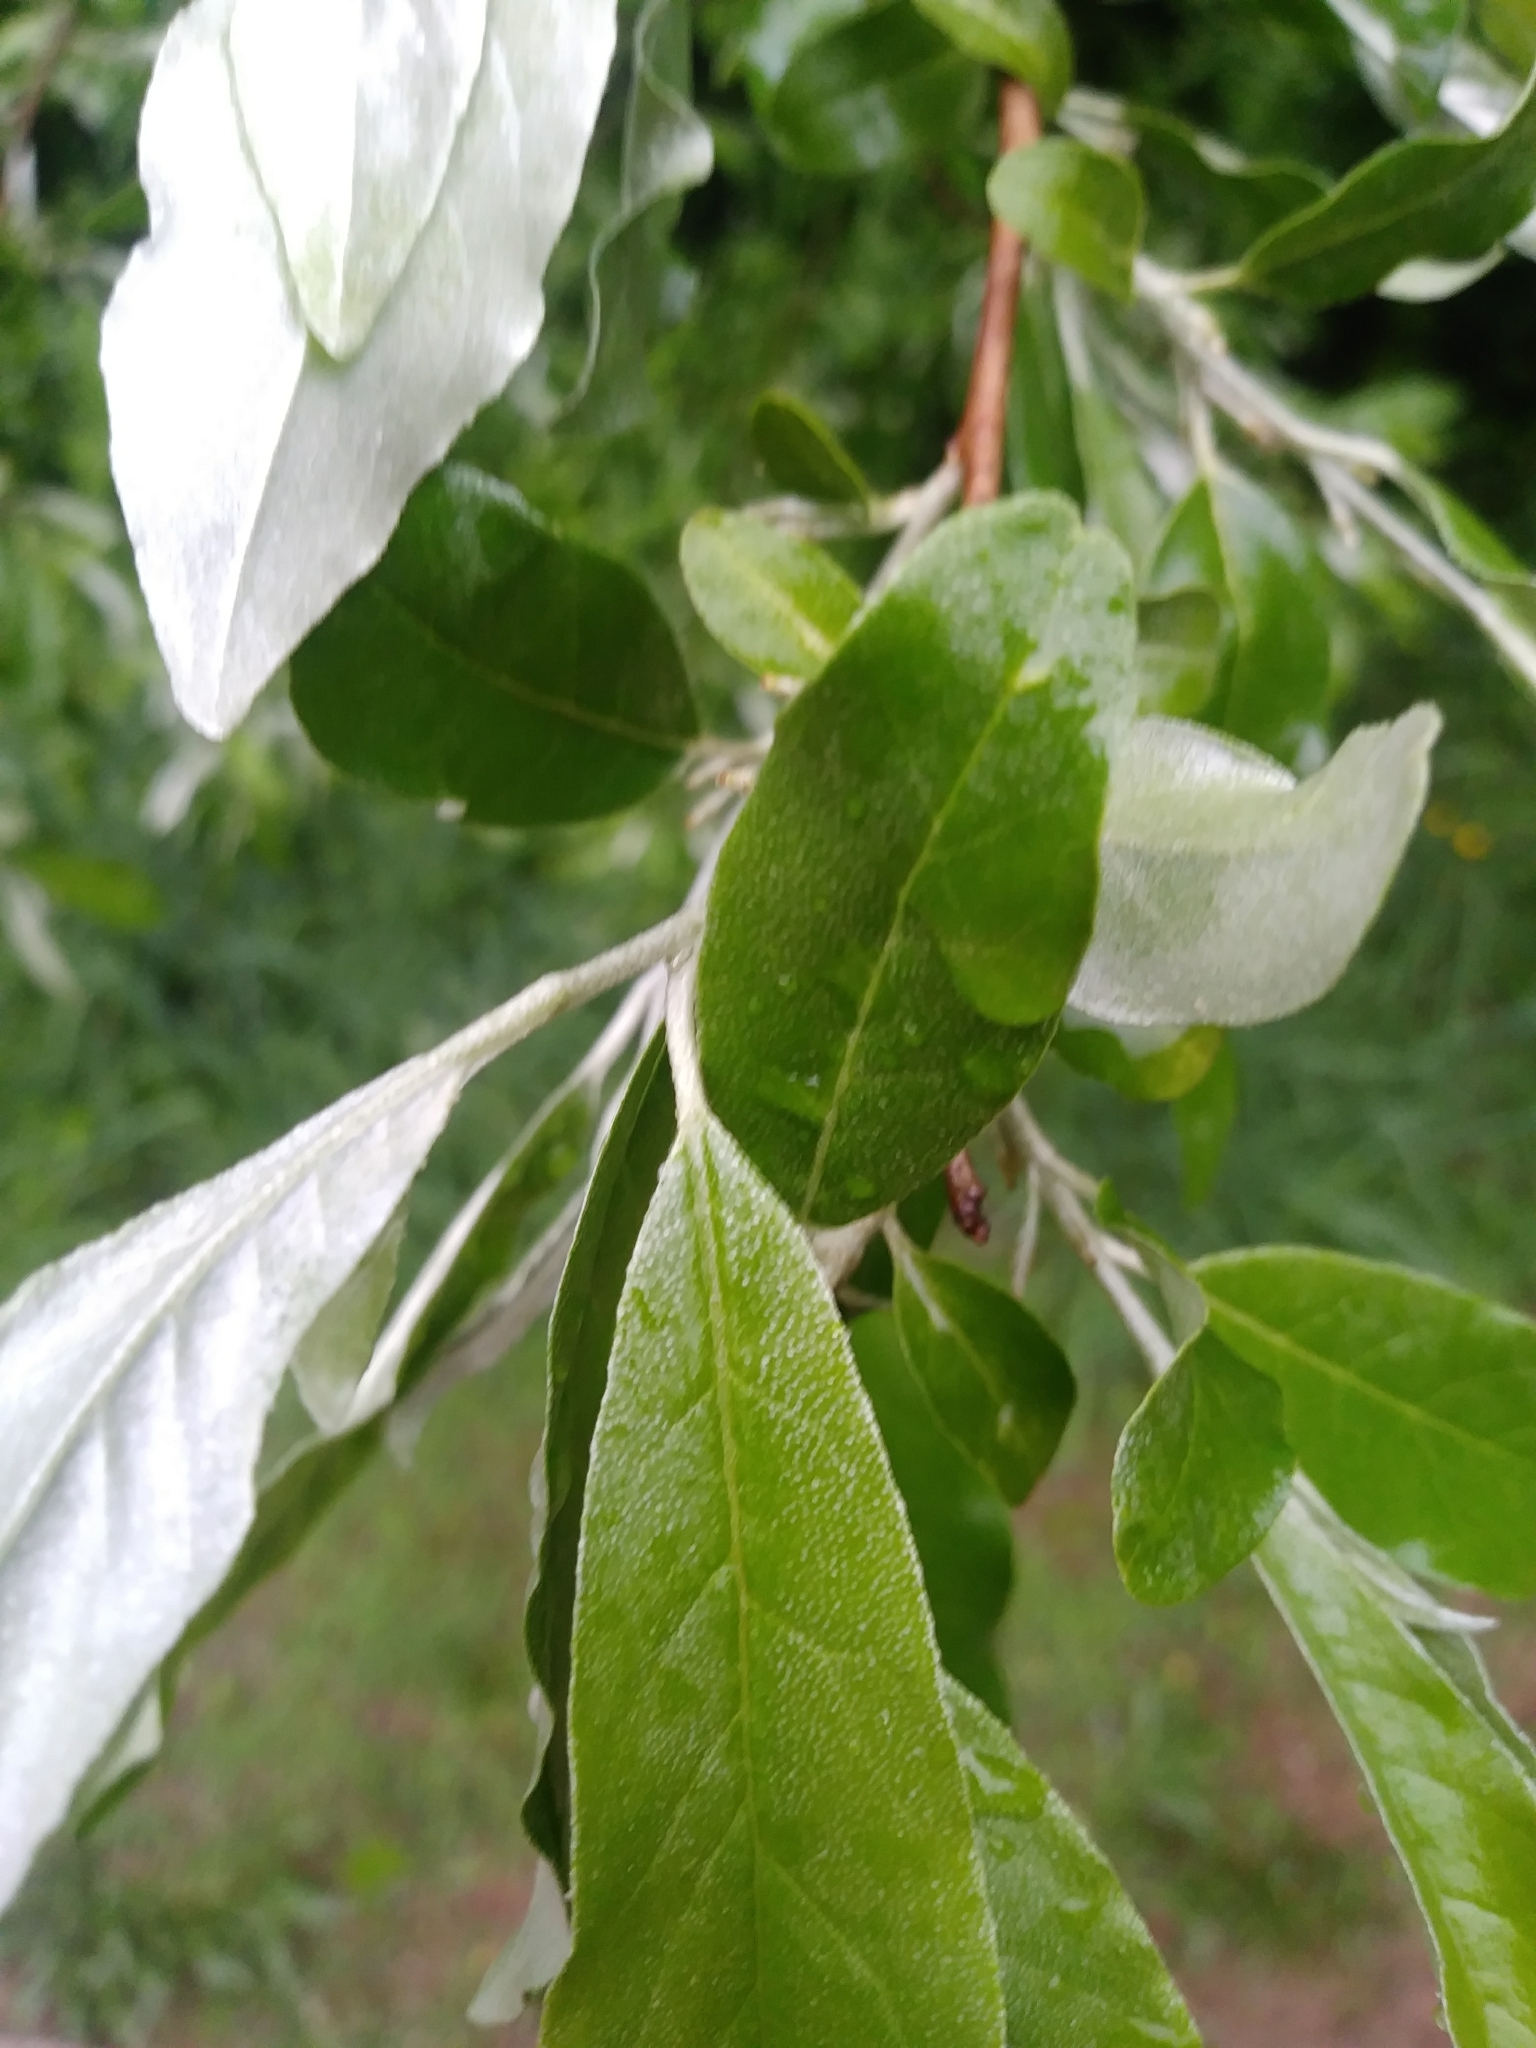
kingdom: Plantae
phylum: Tracheophyta
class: Magnoliopsida
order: Rosales
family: Elaeagnaceae
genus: Elaeagnus
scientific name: Elaeagnus umbellata
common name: Autumn olive
